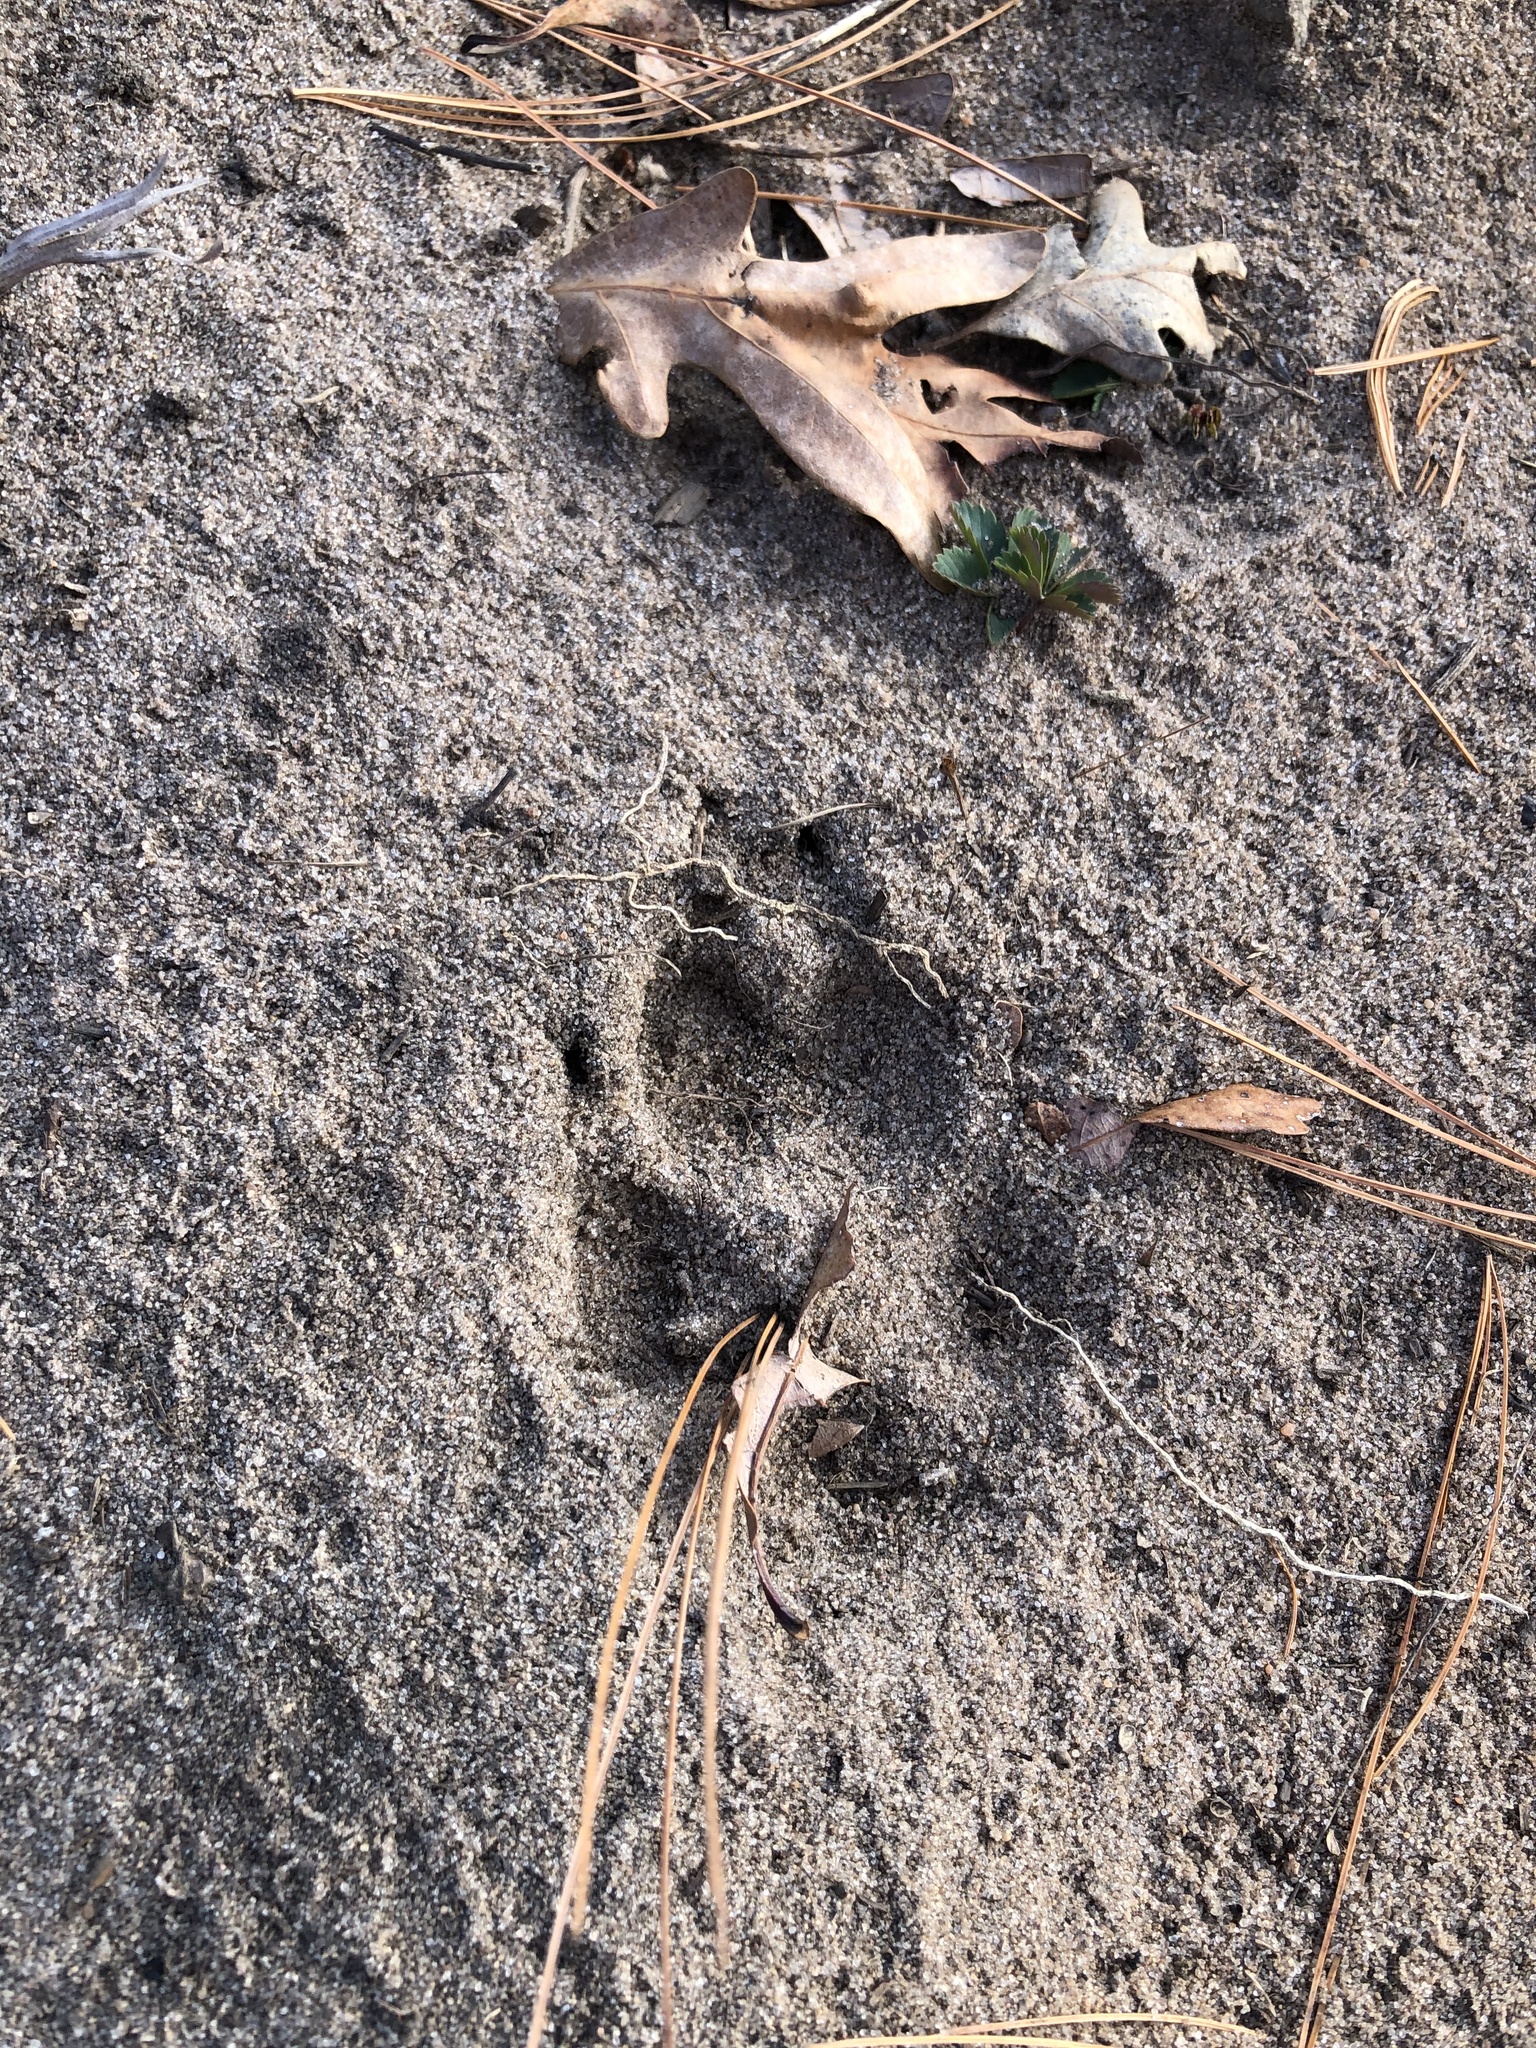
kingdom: Animalia
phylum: Chordata
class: Mammalia
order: Carnivora
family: Canidae
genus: Canis
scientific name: Canis latrans
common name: Coyote
